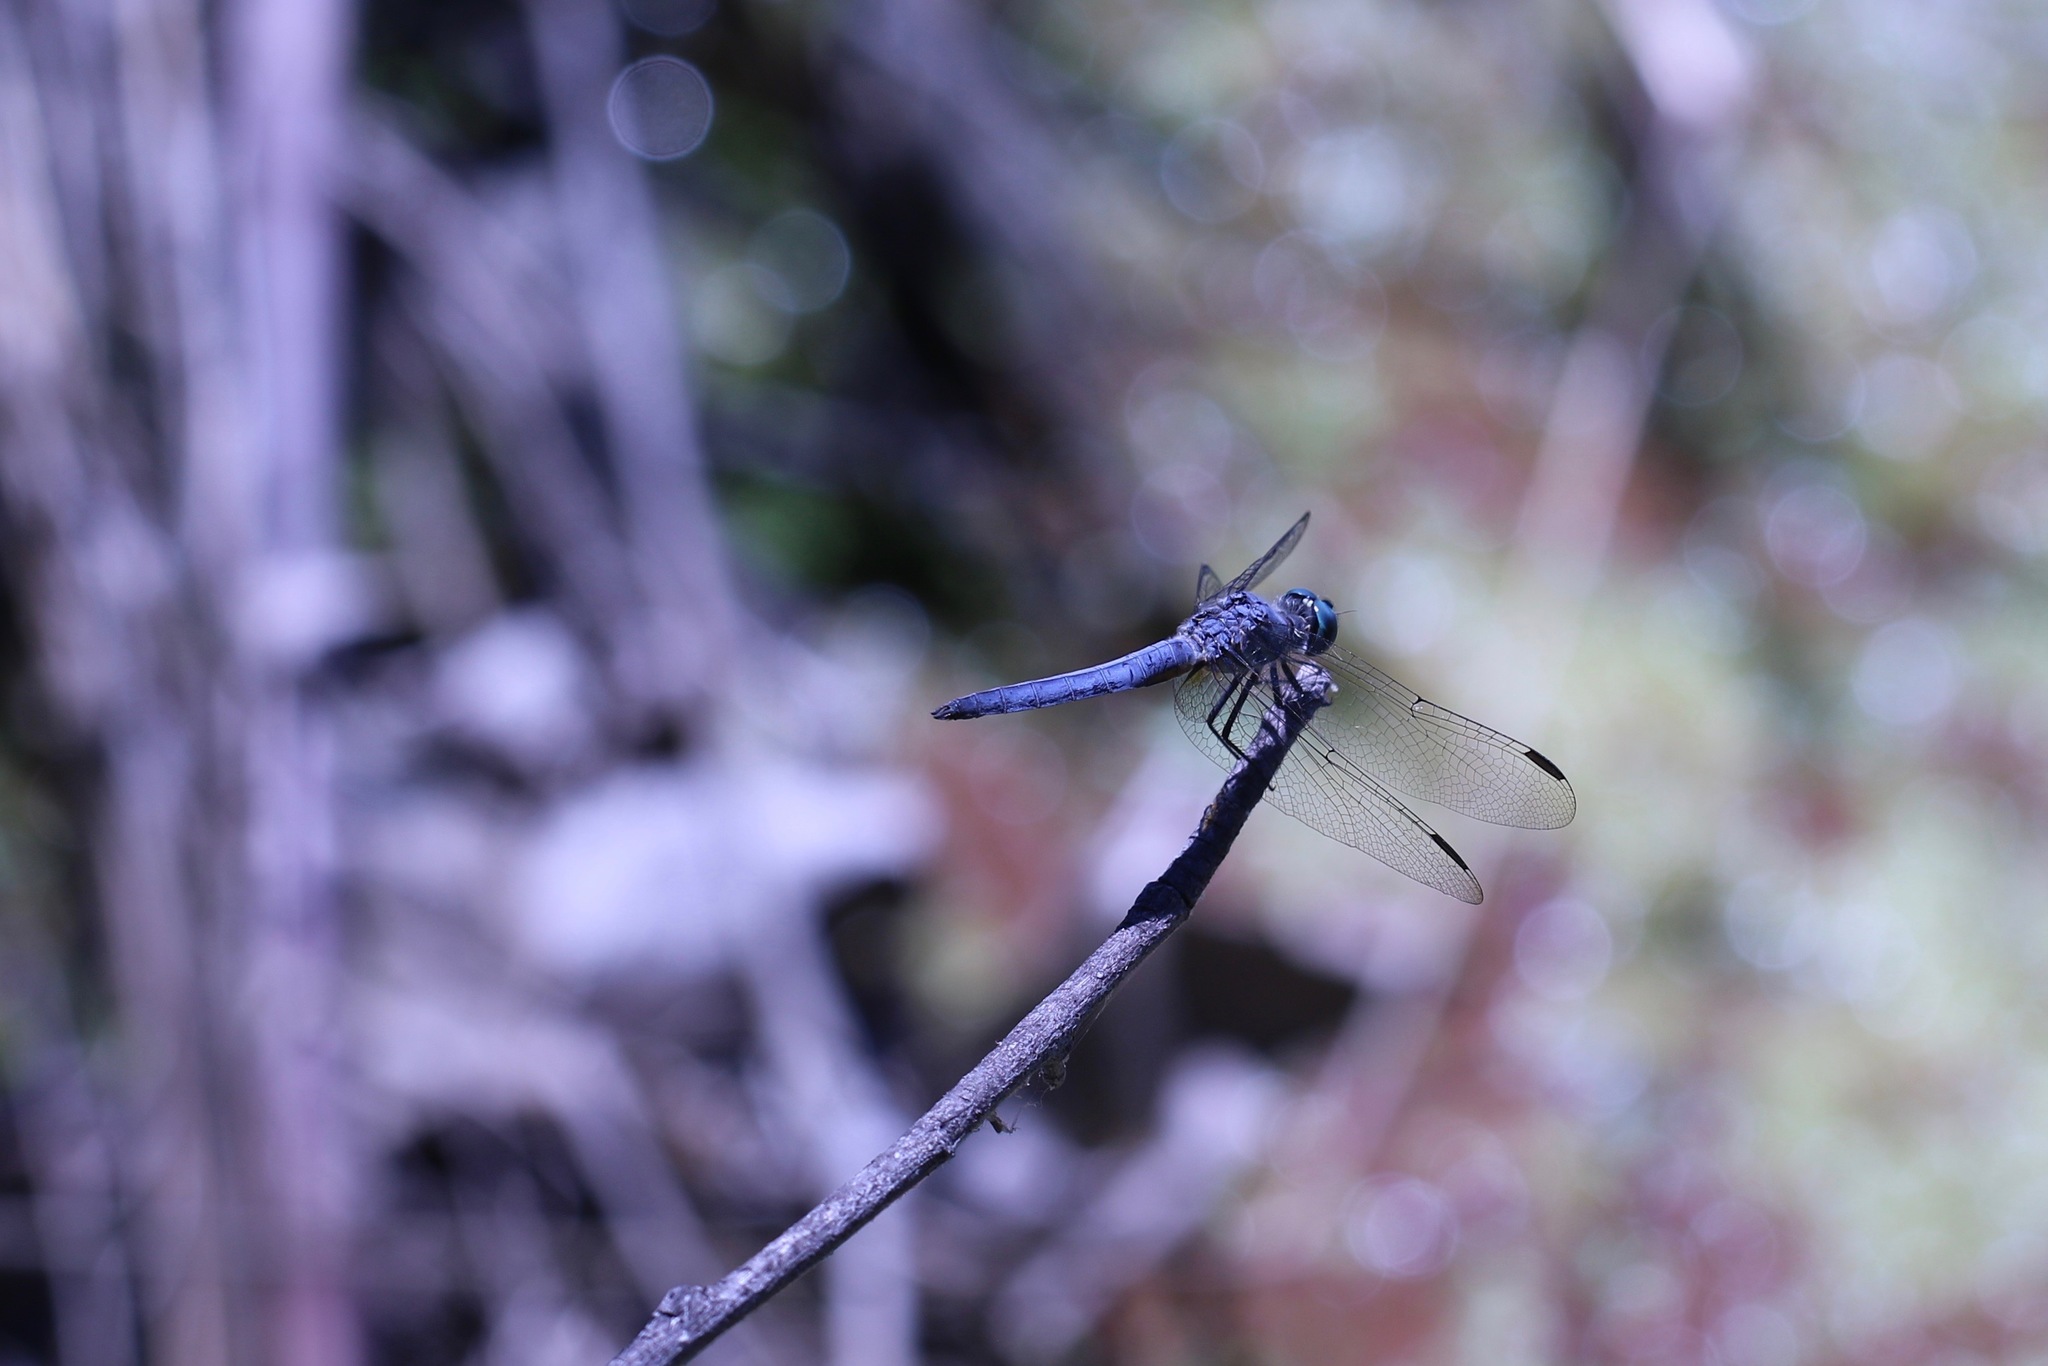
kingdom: Animalia
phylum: Arthropoda
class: Insecta
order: Odonata
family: Libellulidae
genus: Pachydiplax
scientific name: Pachydiplax longipennis
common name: Blue dasher
